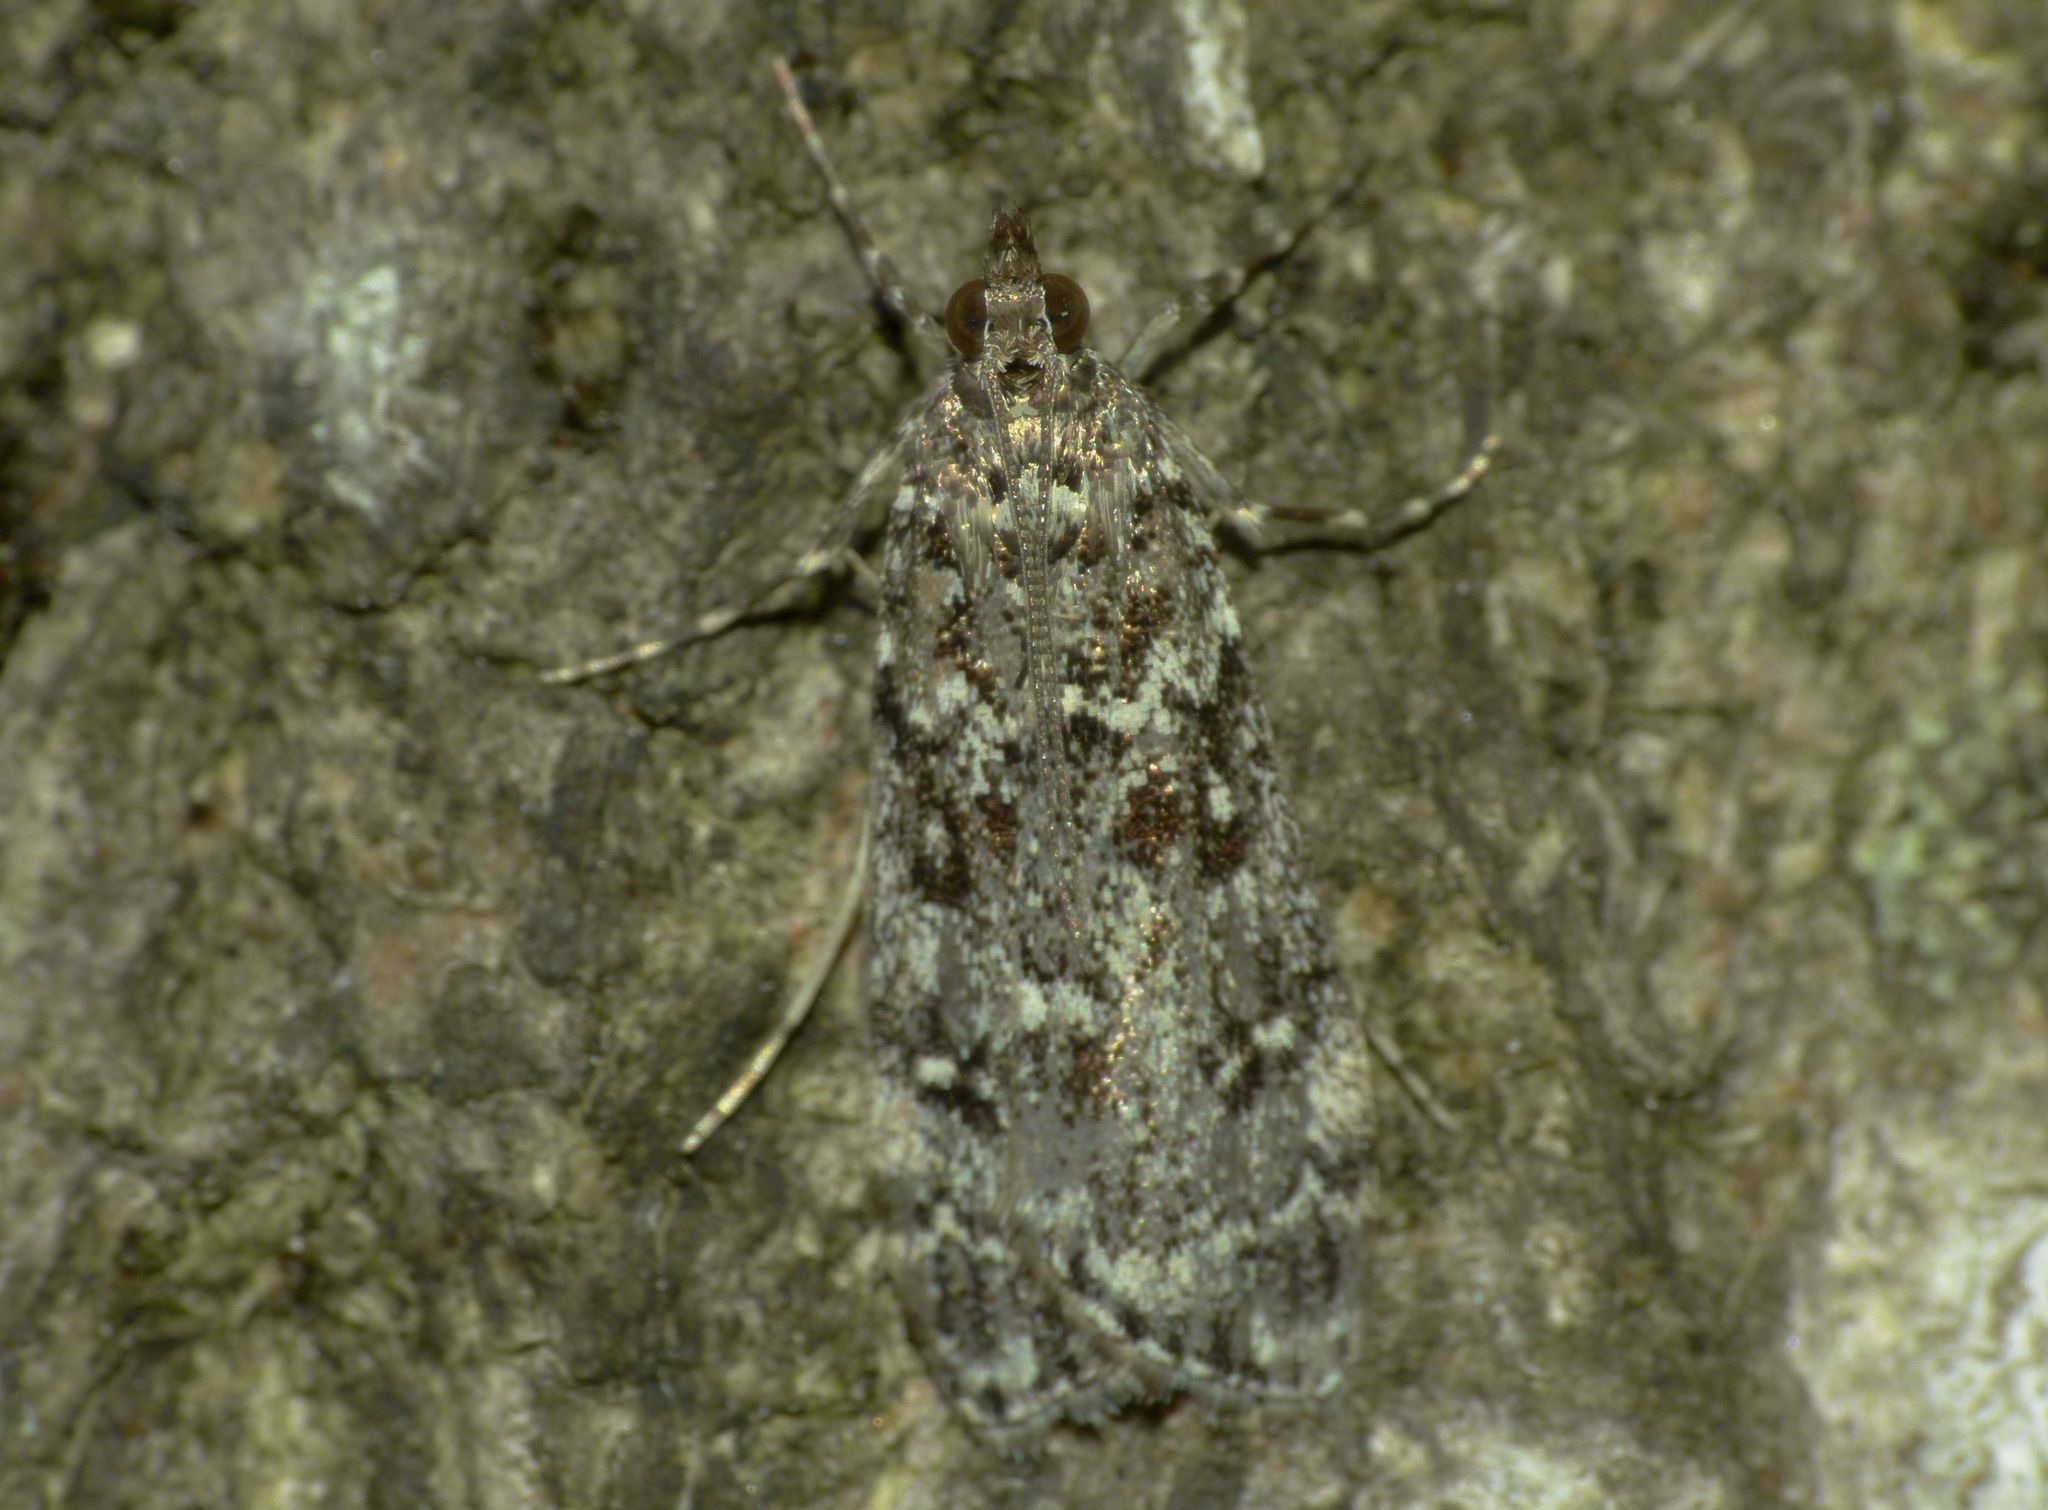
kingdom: Animalia
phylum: Arthropoda
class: Insecta
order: Lepidoptera
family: Crambidae
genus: Eudonia
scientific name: Eudonia philerga
